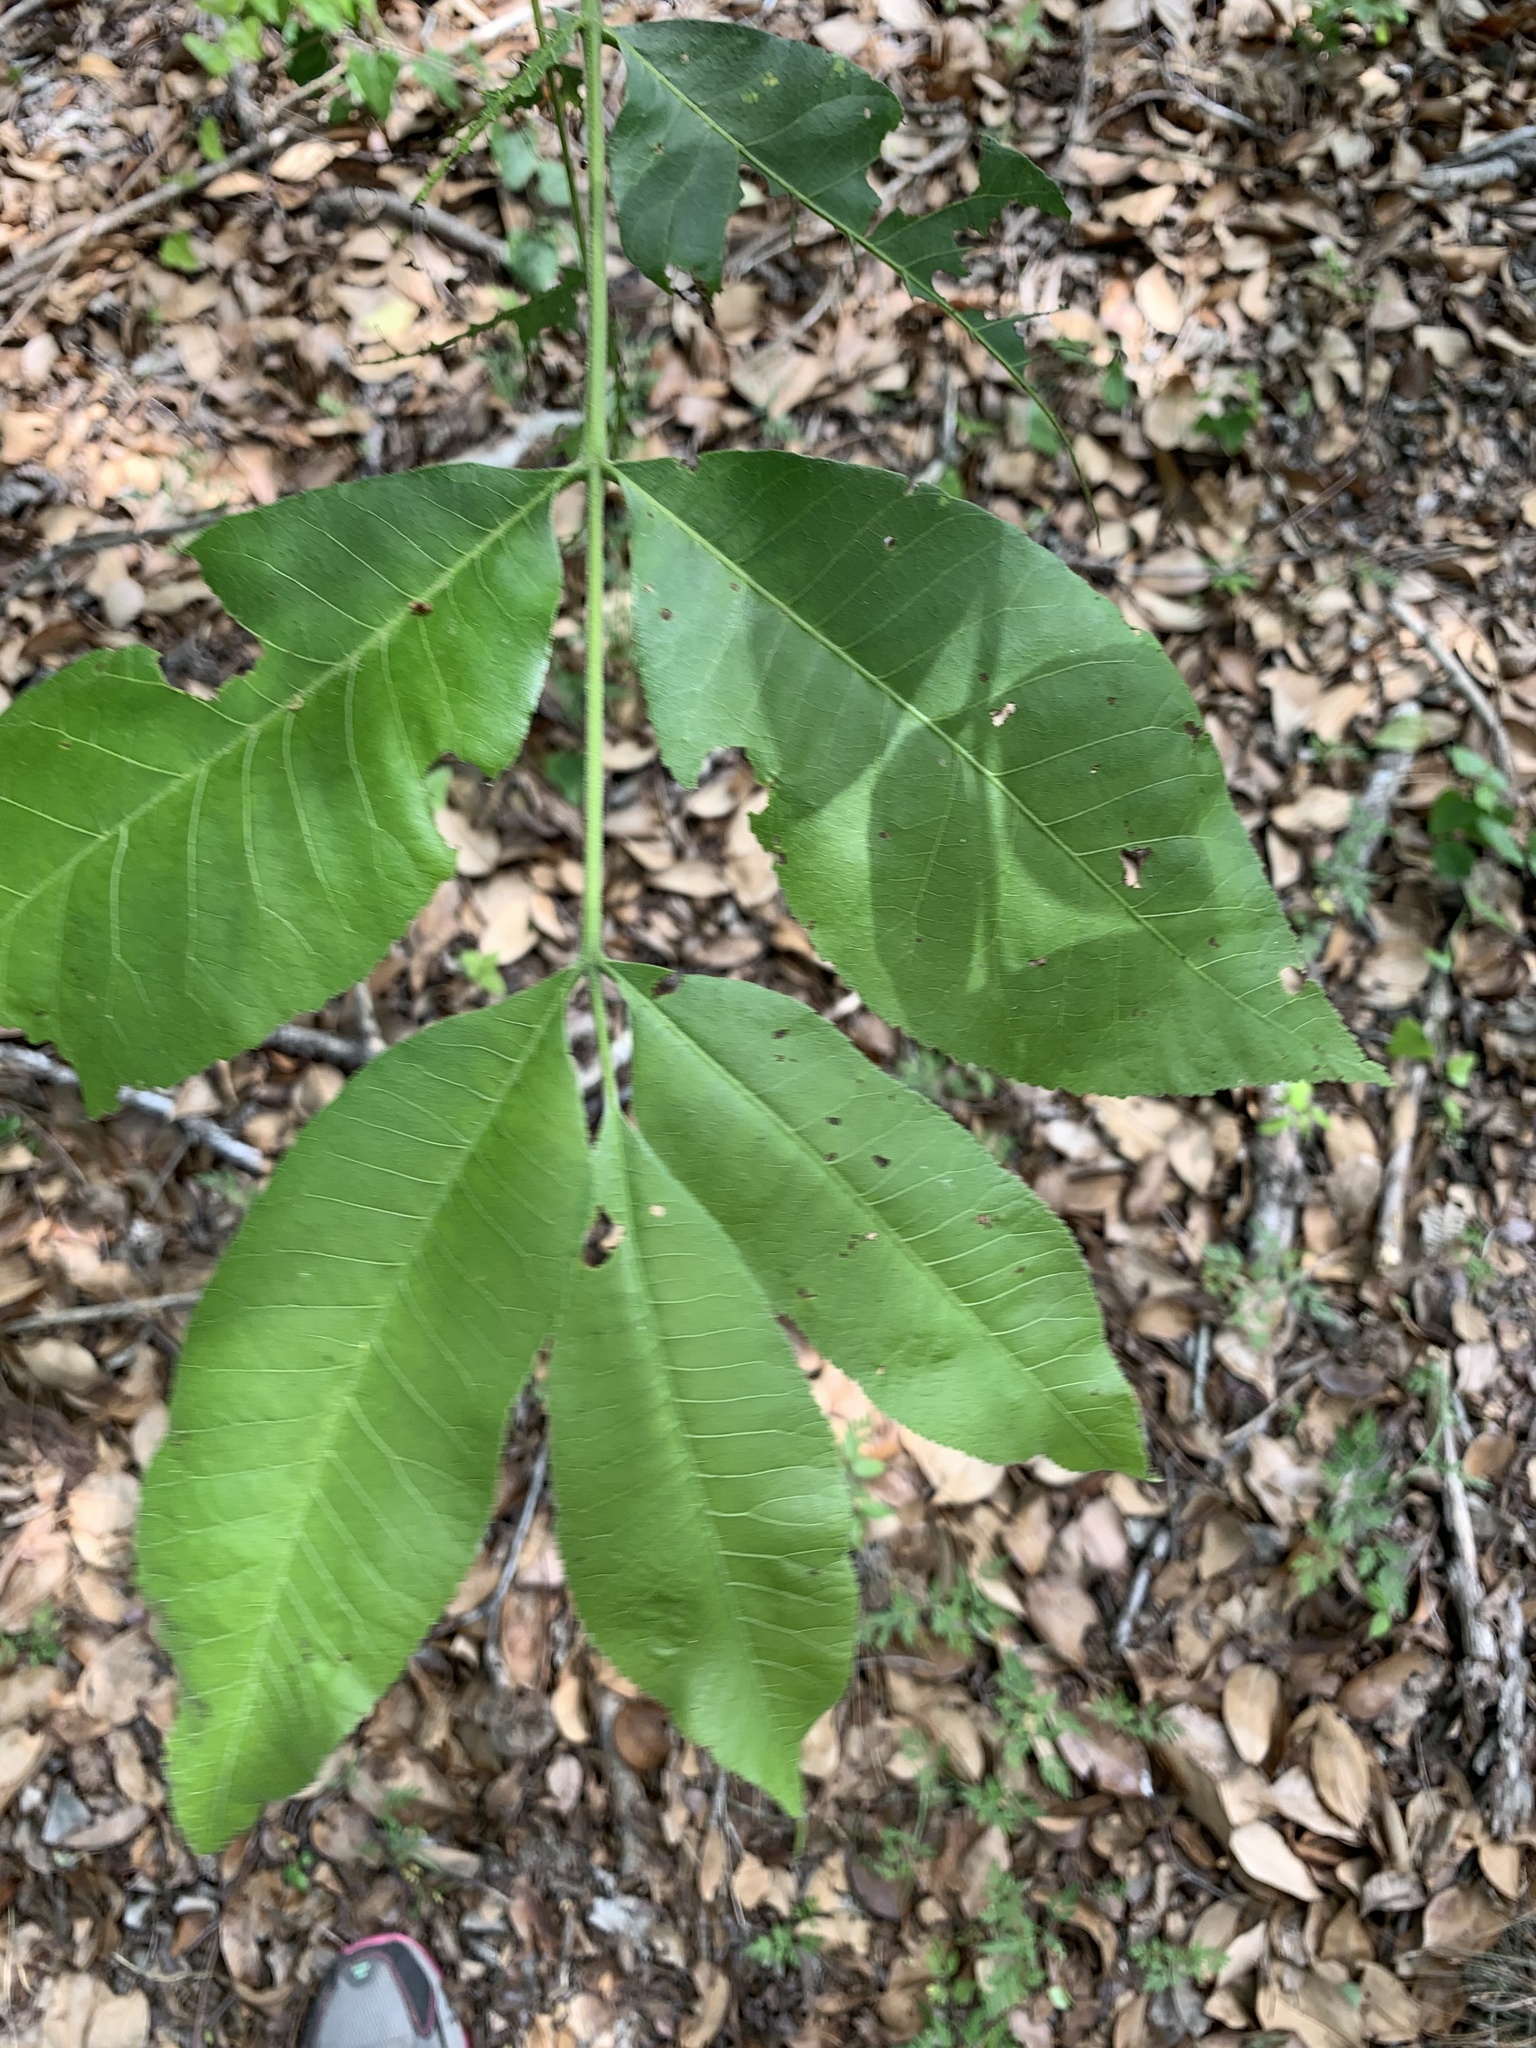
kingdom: Plantae
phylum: Tracheophyta
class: Magnoliopsida
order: Fagales
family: Juglandaceae
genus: Carya
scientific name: Carya illinoinensis
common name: Pecan
